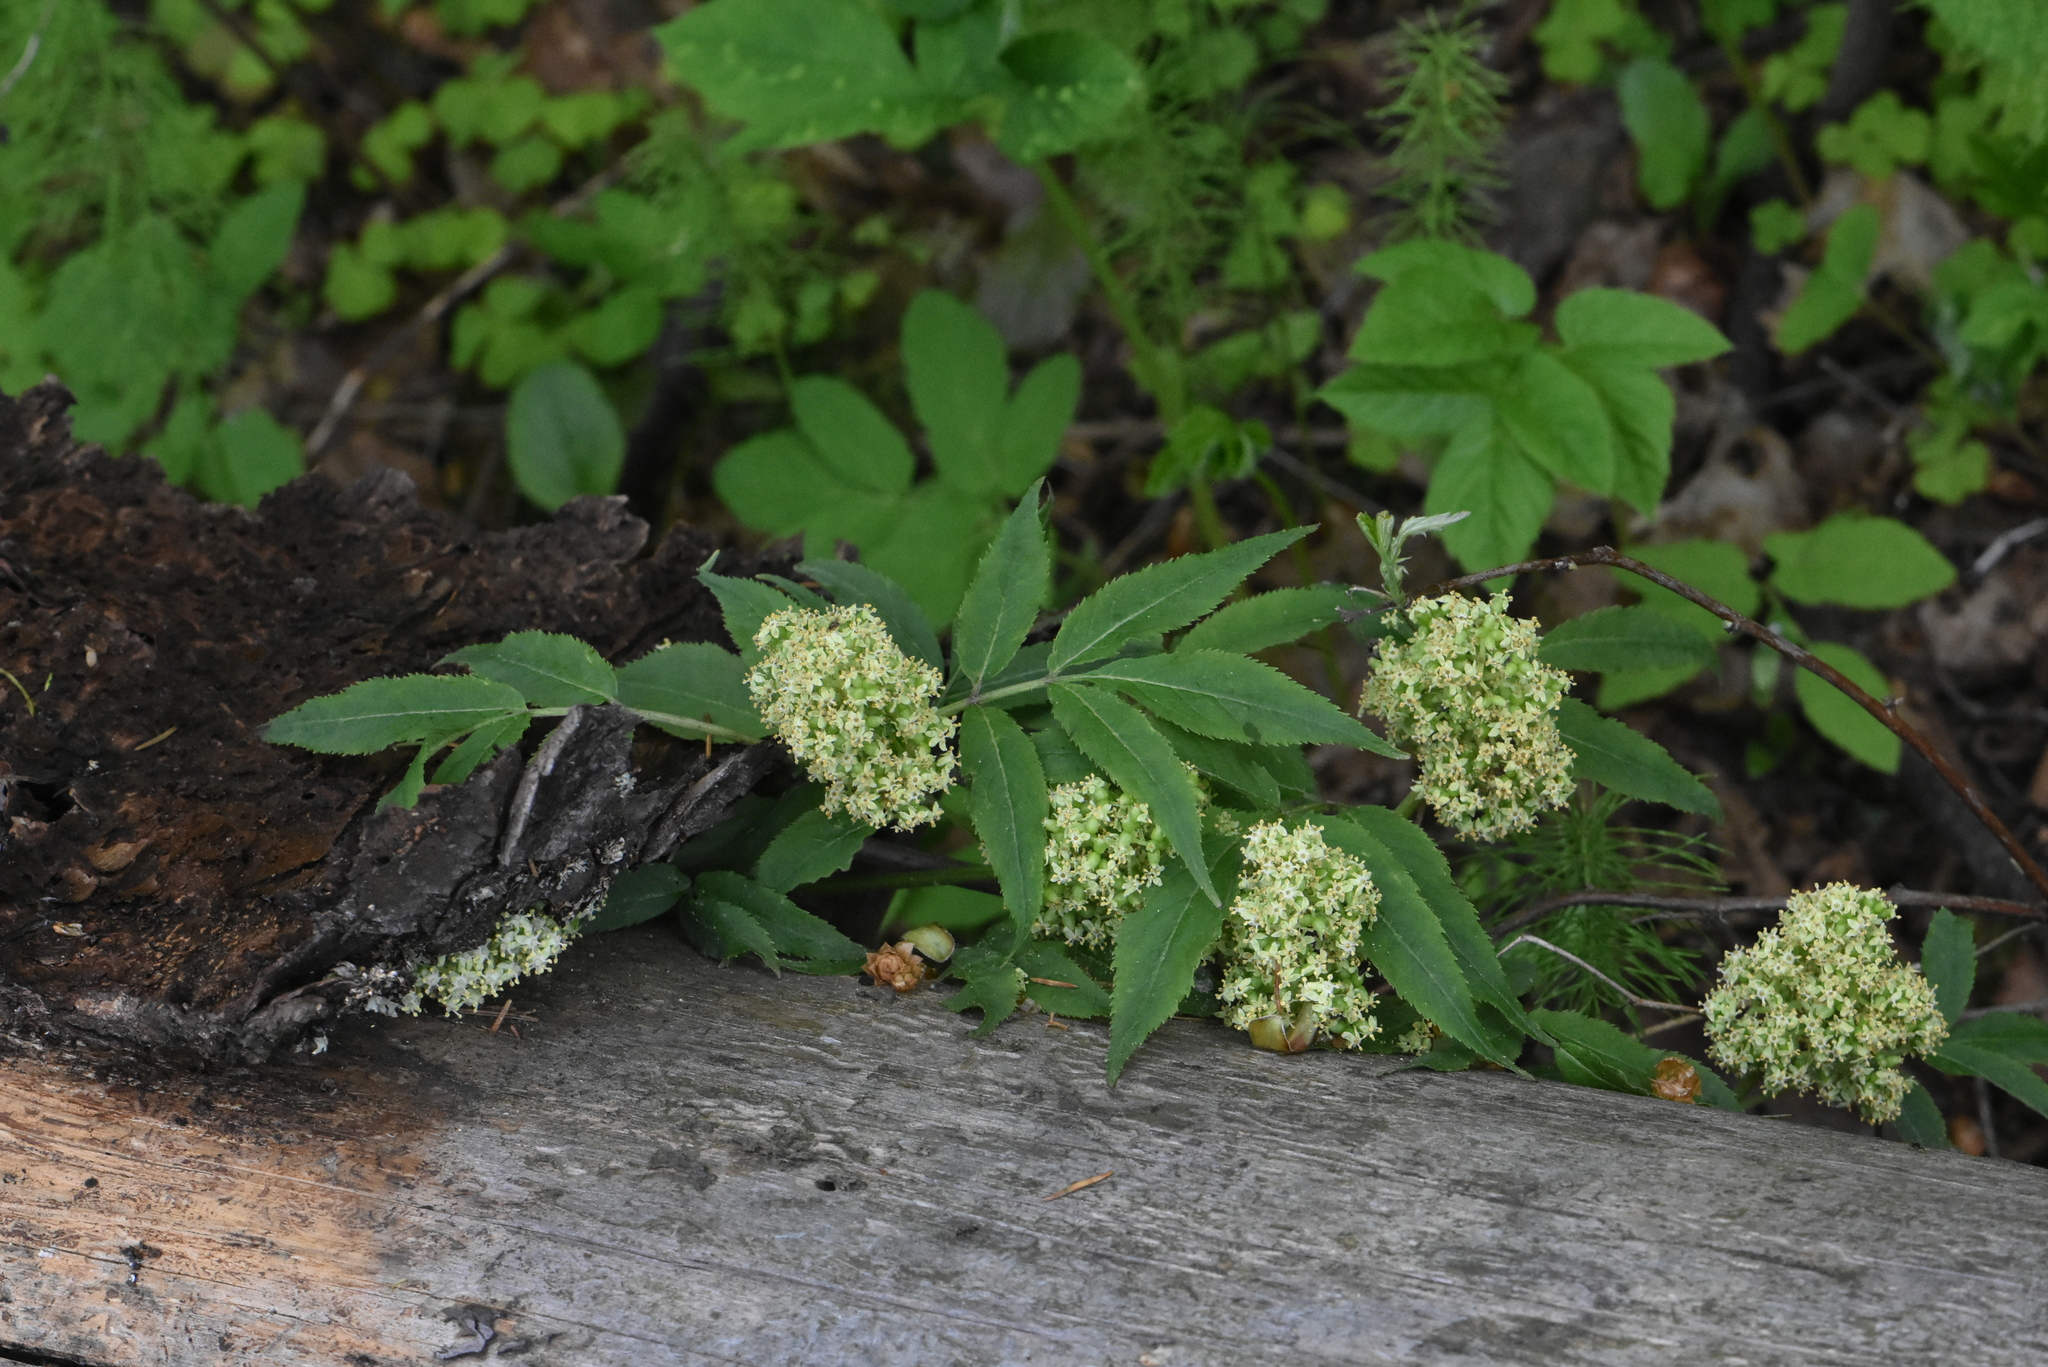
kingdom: Plantae
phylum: Tracheophyta
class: Magnoliopsida
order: Dipsacales
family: Viburnaceae
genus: Sambucus
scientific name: Sambucus racemosa
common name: Red-berried elder
